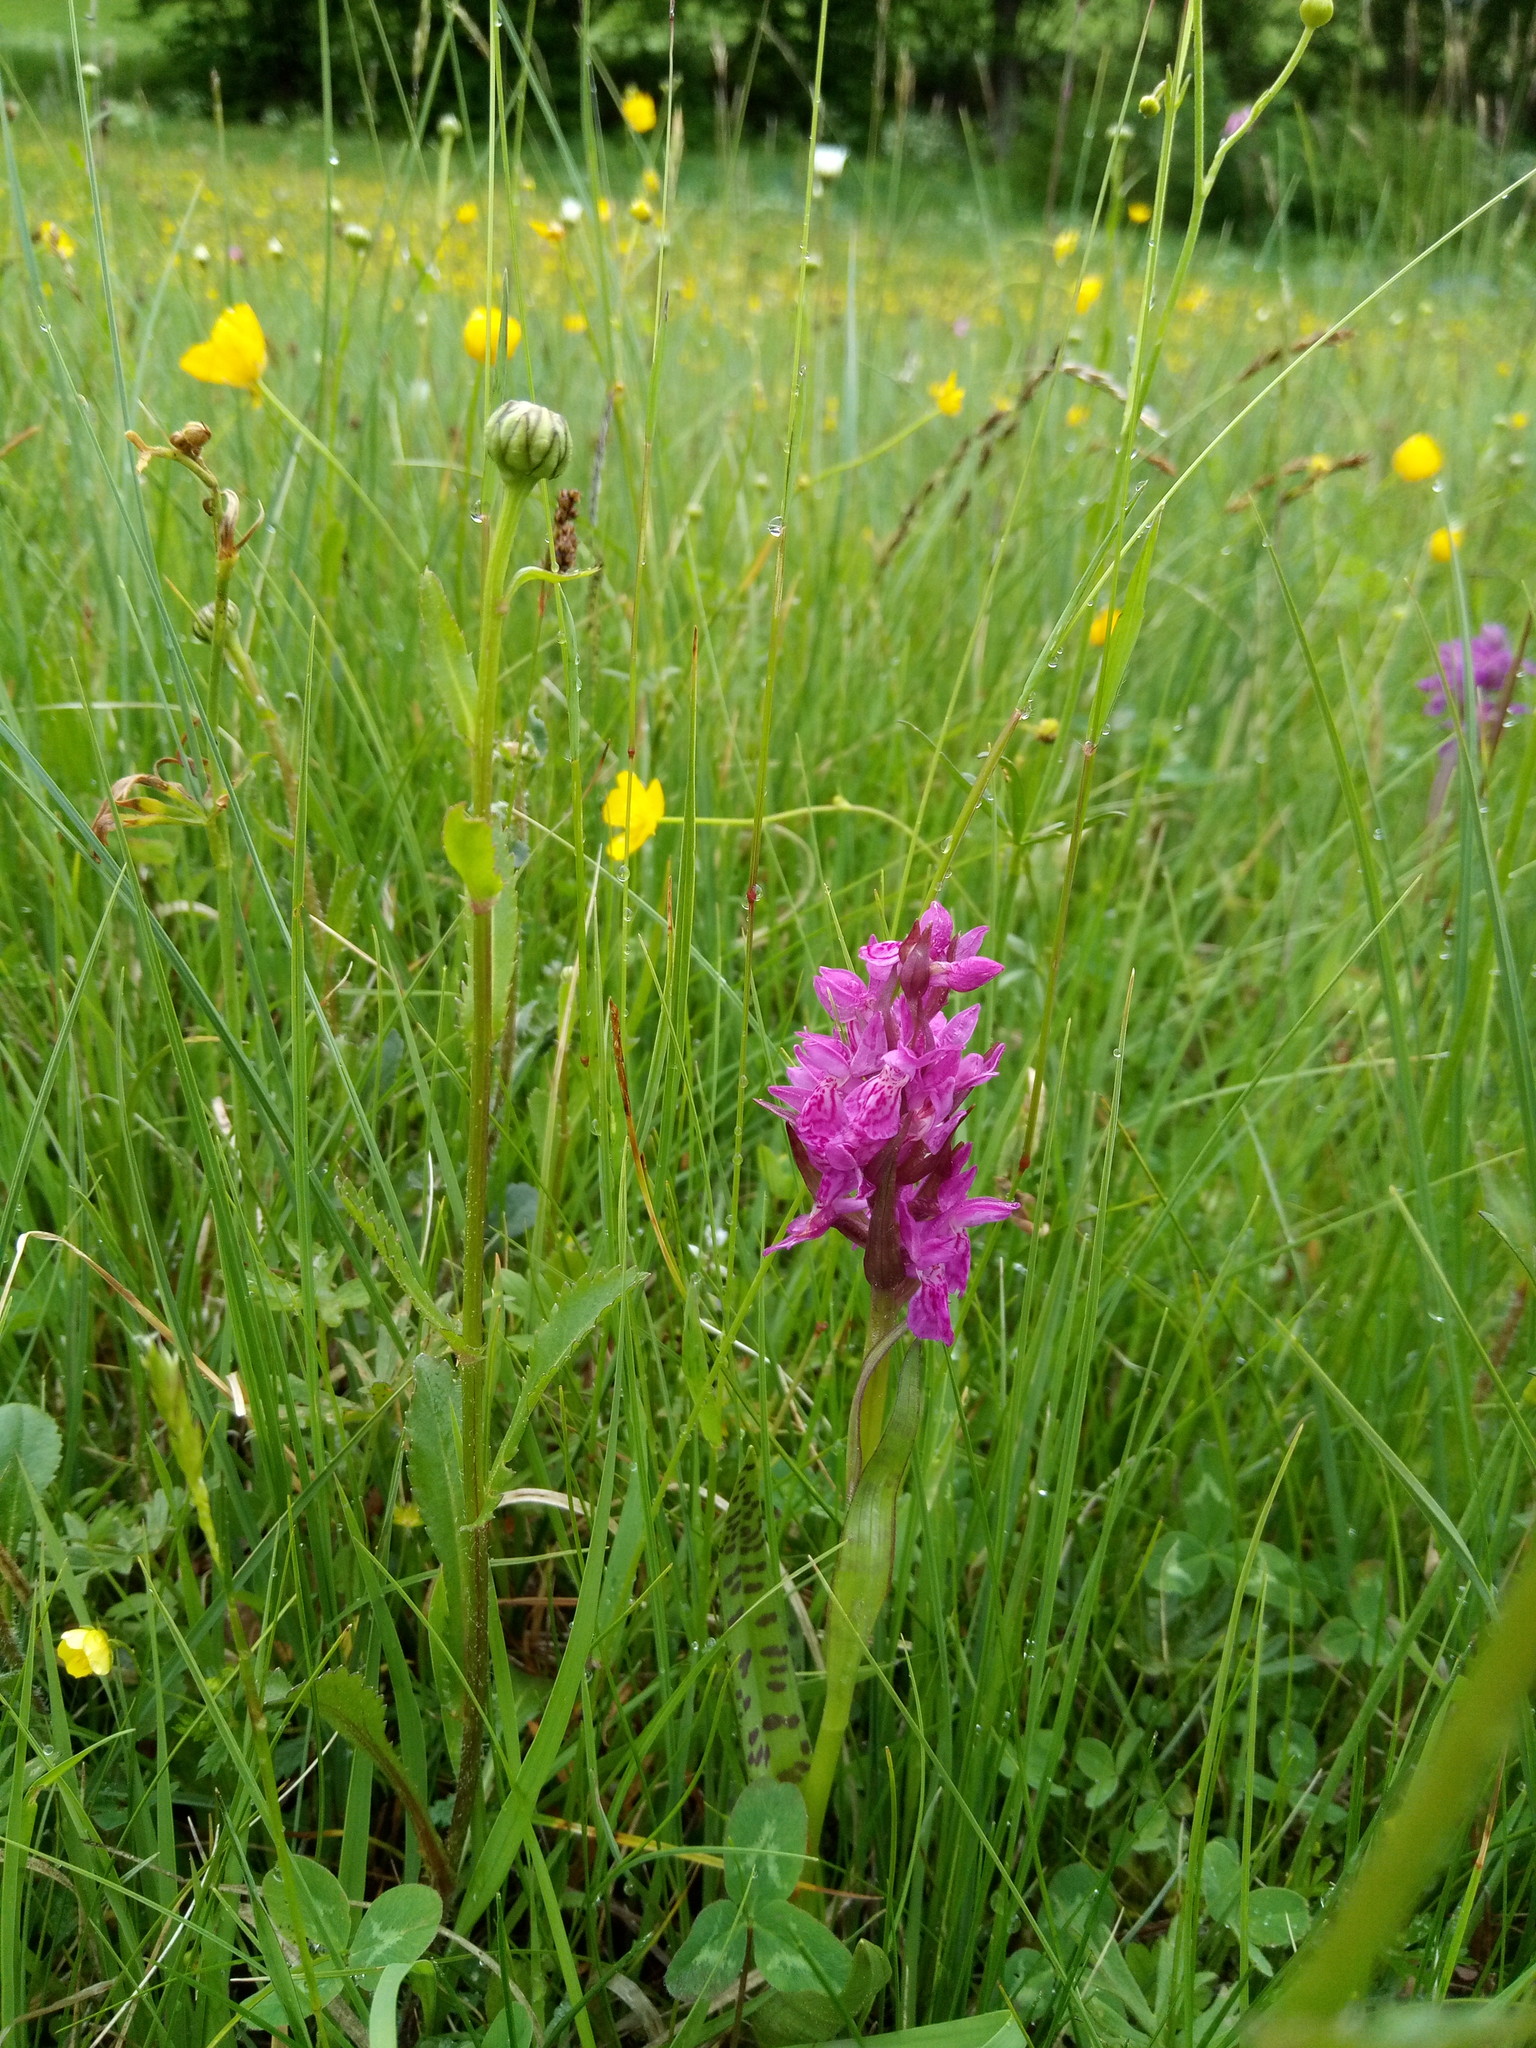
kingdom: Plantae
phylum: Tracheophyta
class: Liliopsida
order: Asparagales
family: Orchidaceae
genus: Dactylorhiza
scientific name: Dactylorhiza majalis
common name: Marsh orchid
